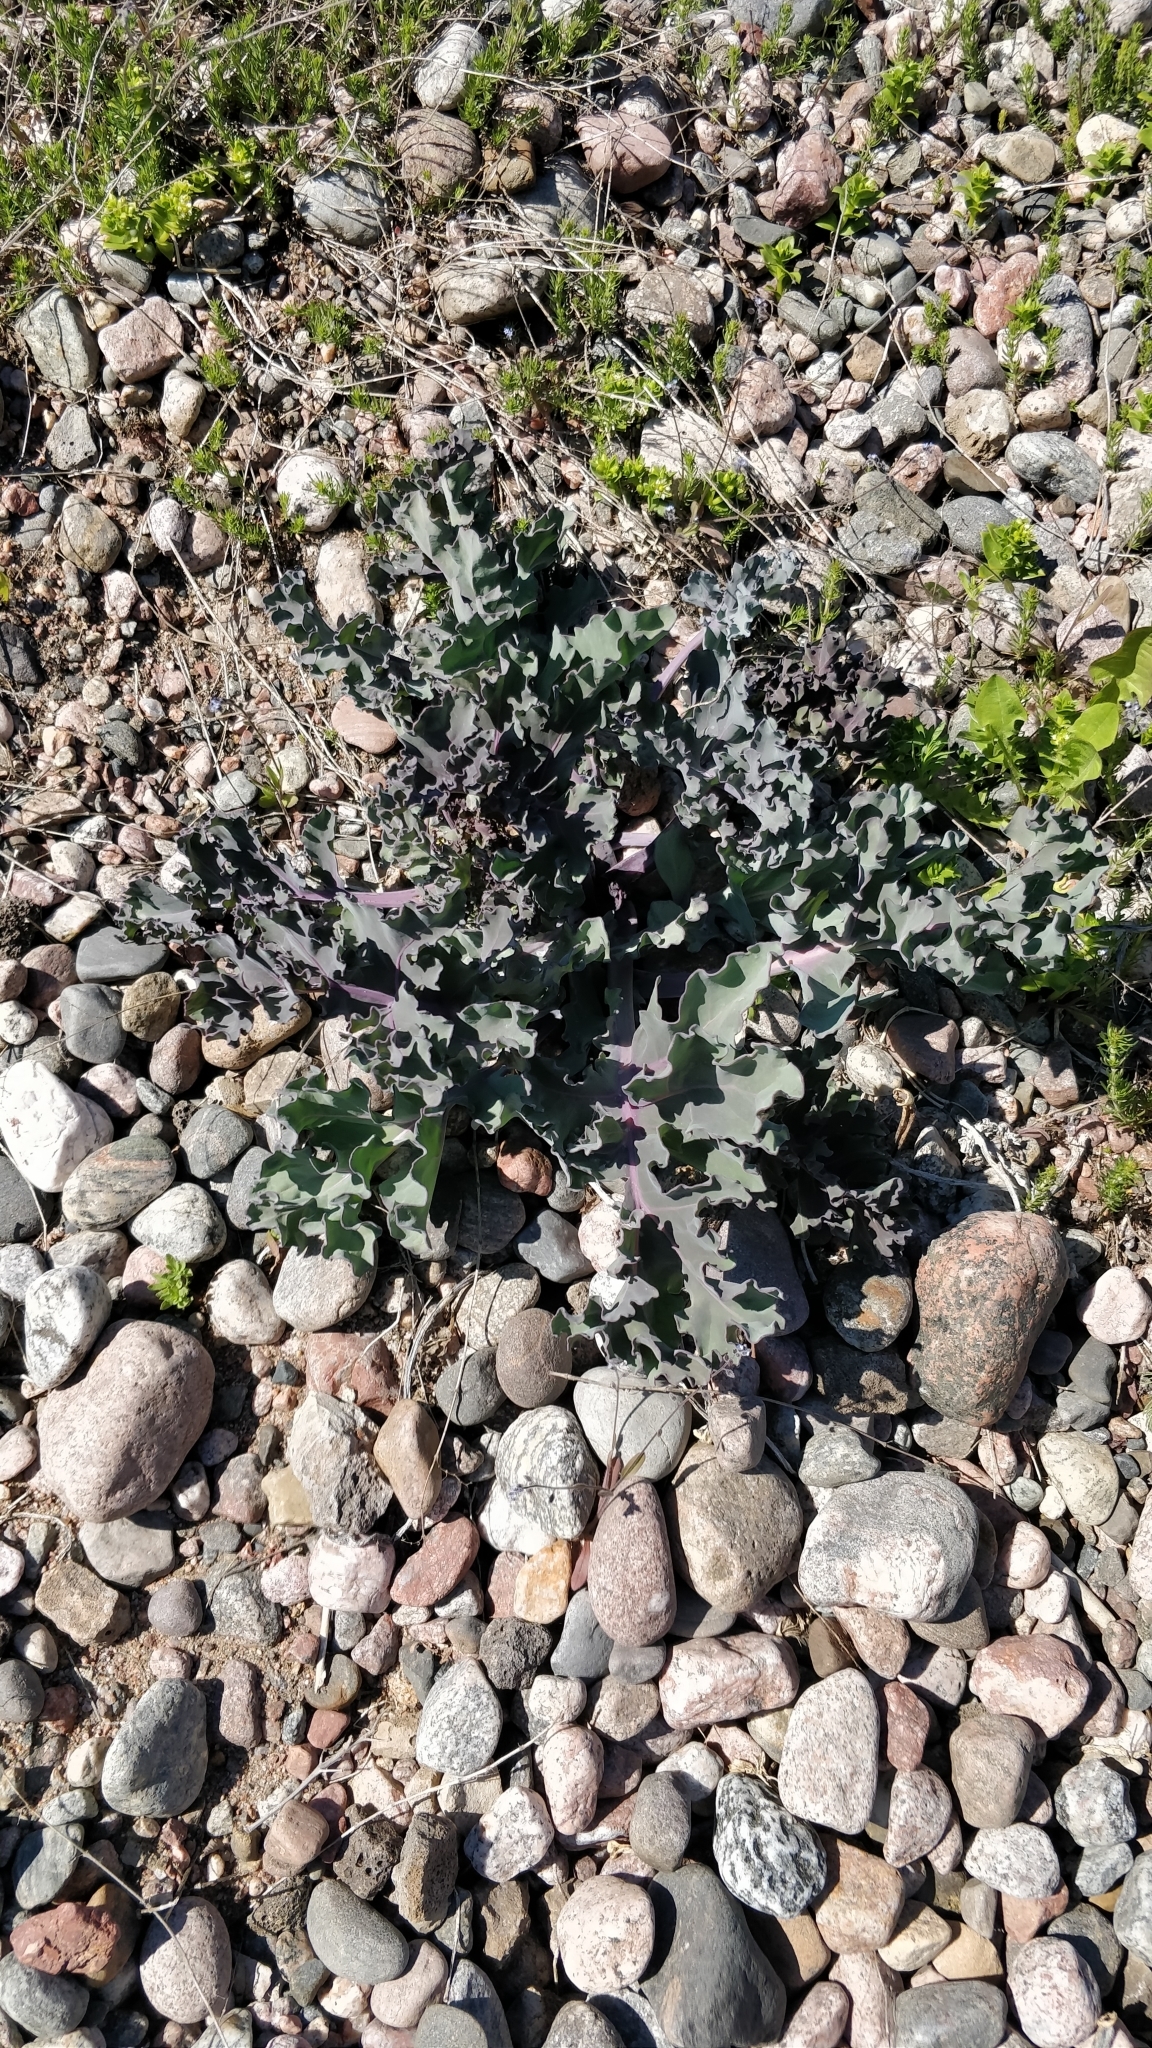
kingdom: Plantae
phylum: Tracheophyta
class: Magnoliopsida
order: Brassicales
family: Brassicaceae
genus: Crambe
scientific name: Crambe maritima
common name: Sea-kale
